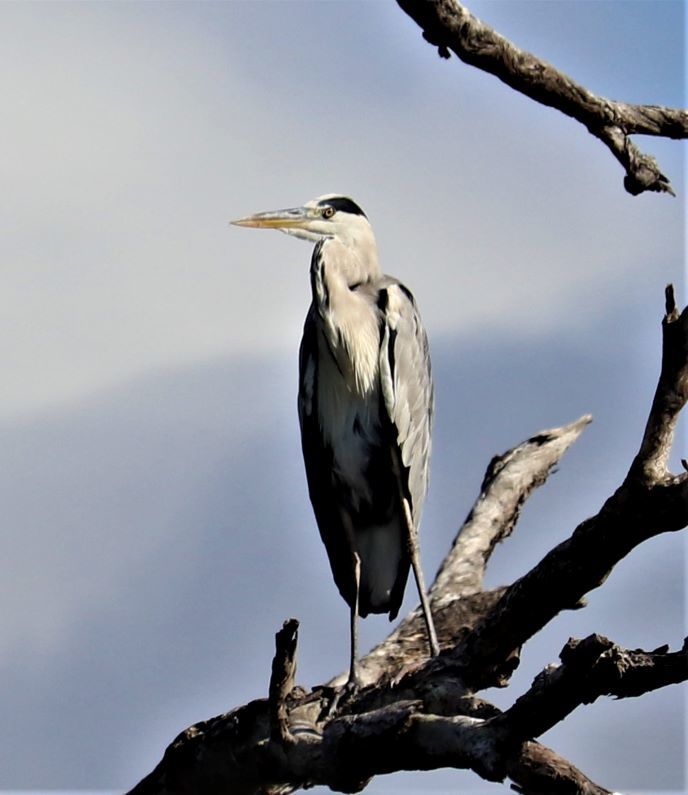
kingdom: Animalia
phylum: Chordata
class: Aves
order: Pelecaniformes
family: Ardeidae
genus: Ardea
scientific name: Ardea cinerea
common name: Grey heron
